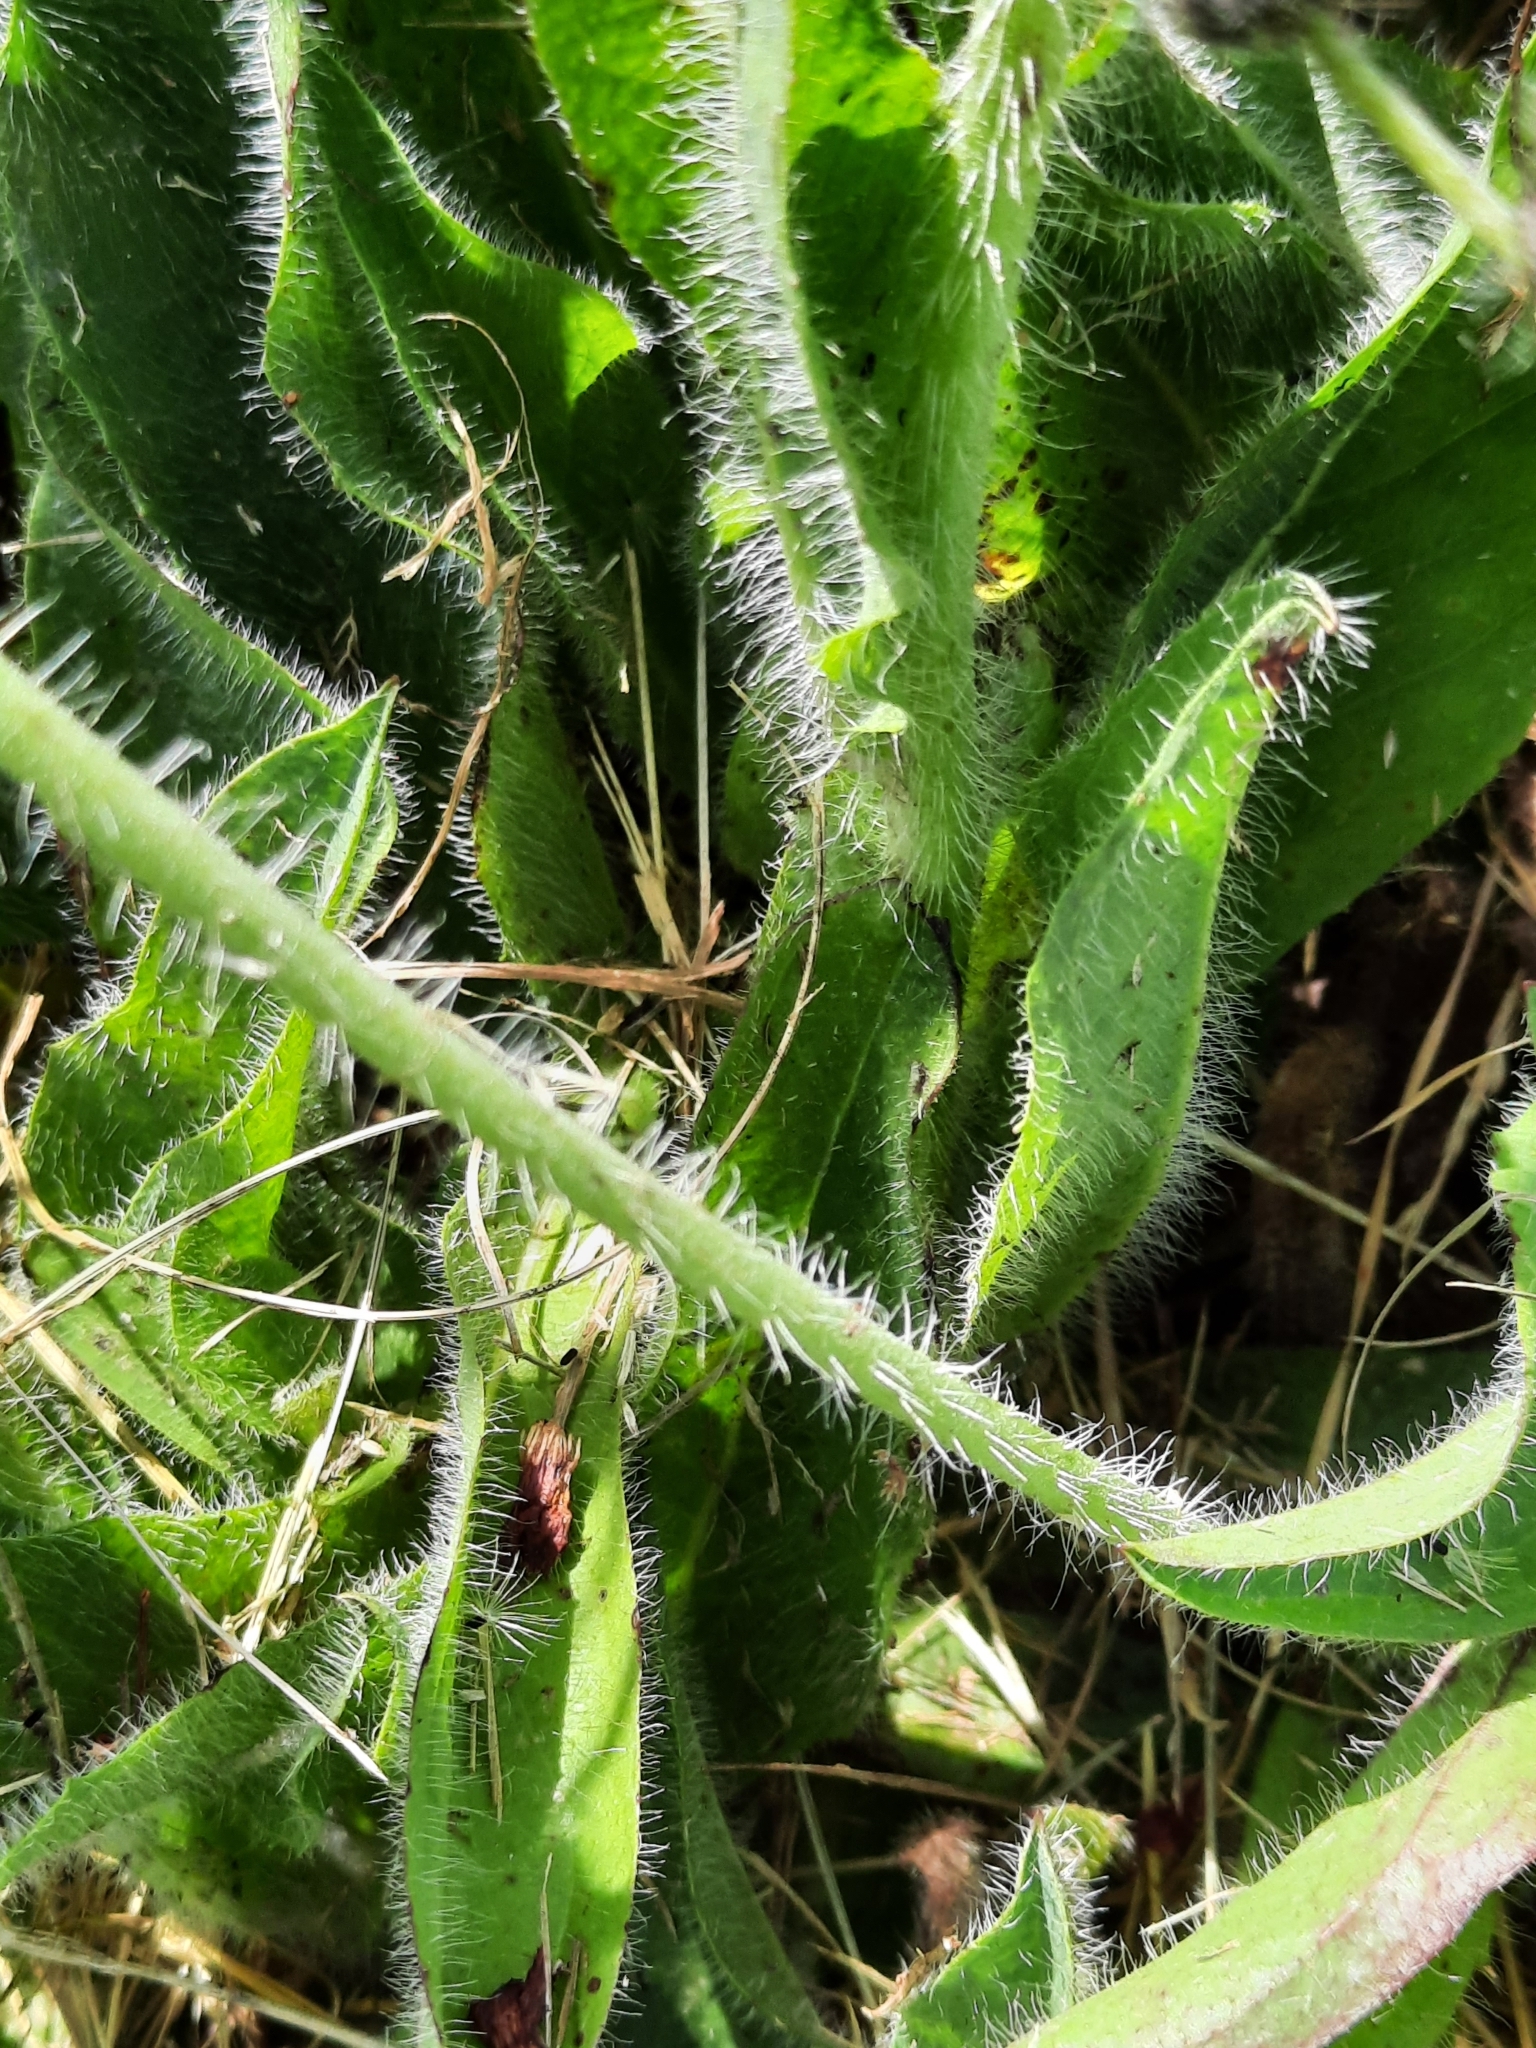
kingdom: Plantae
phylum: Tracheophyta
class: Magnoliopsida
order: Asterales
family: Asteraceae
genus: Pilosella
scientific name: Pilosella aurantiaca
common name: Fox-and-cubs
